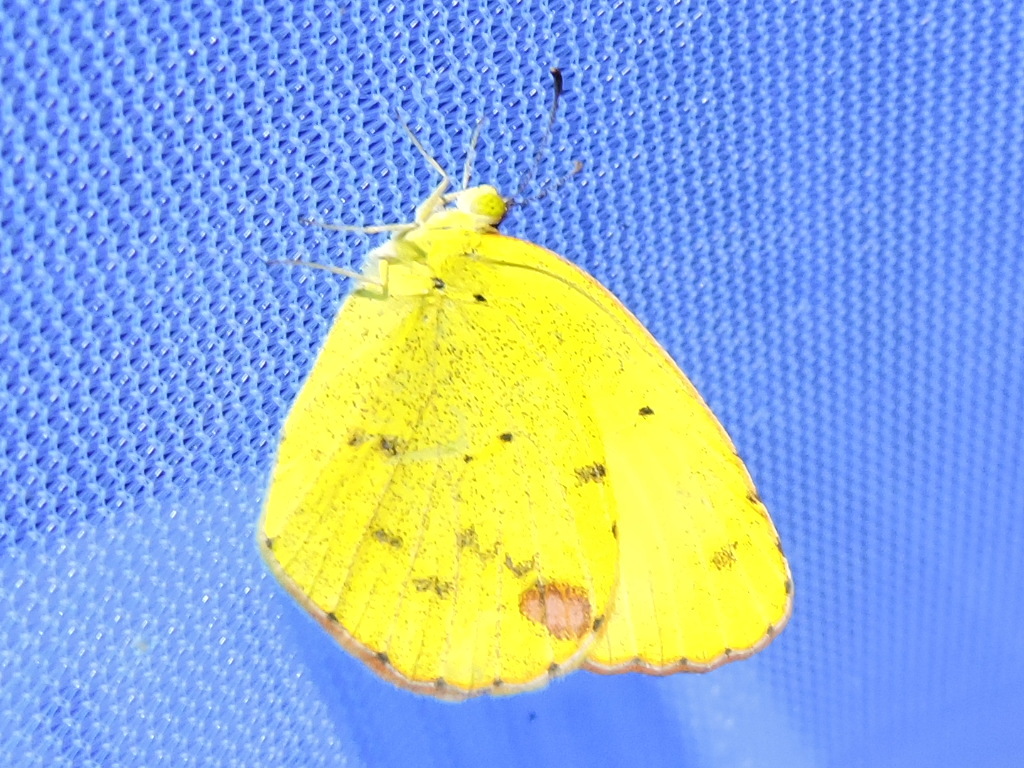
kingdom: Animalia
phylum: Arthropoda
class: Insecta
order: Lepidoptera
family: Pieridae
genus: Pyrisitia
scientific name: Pyrisitia lisa
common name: Little yellow
